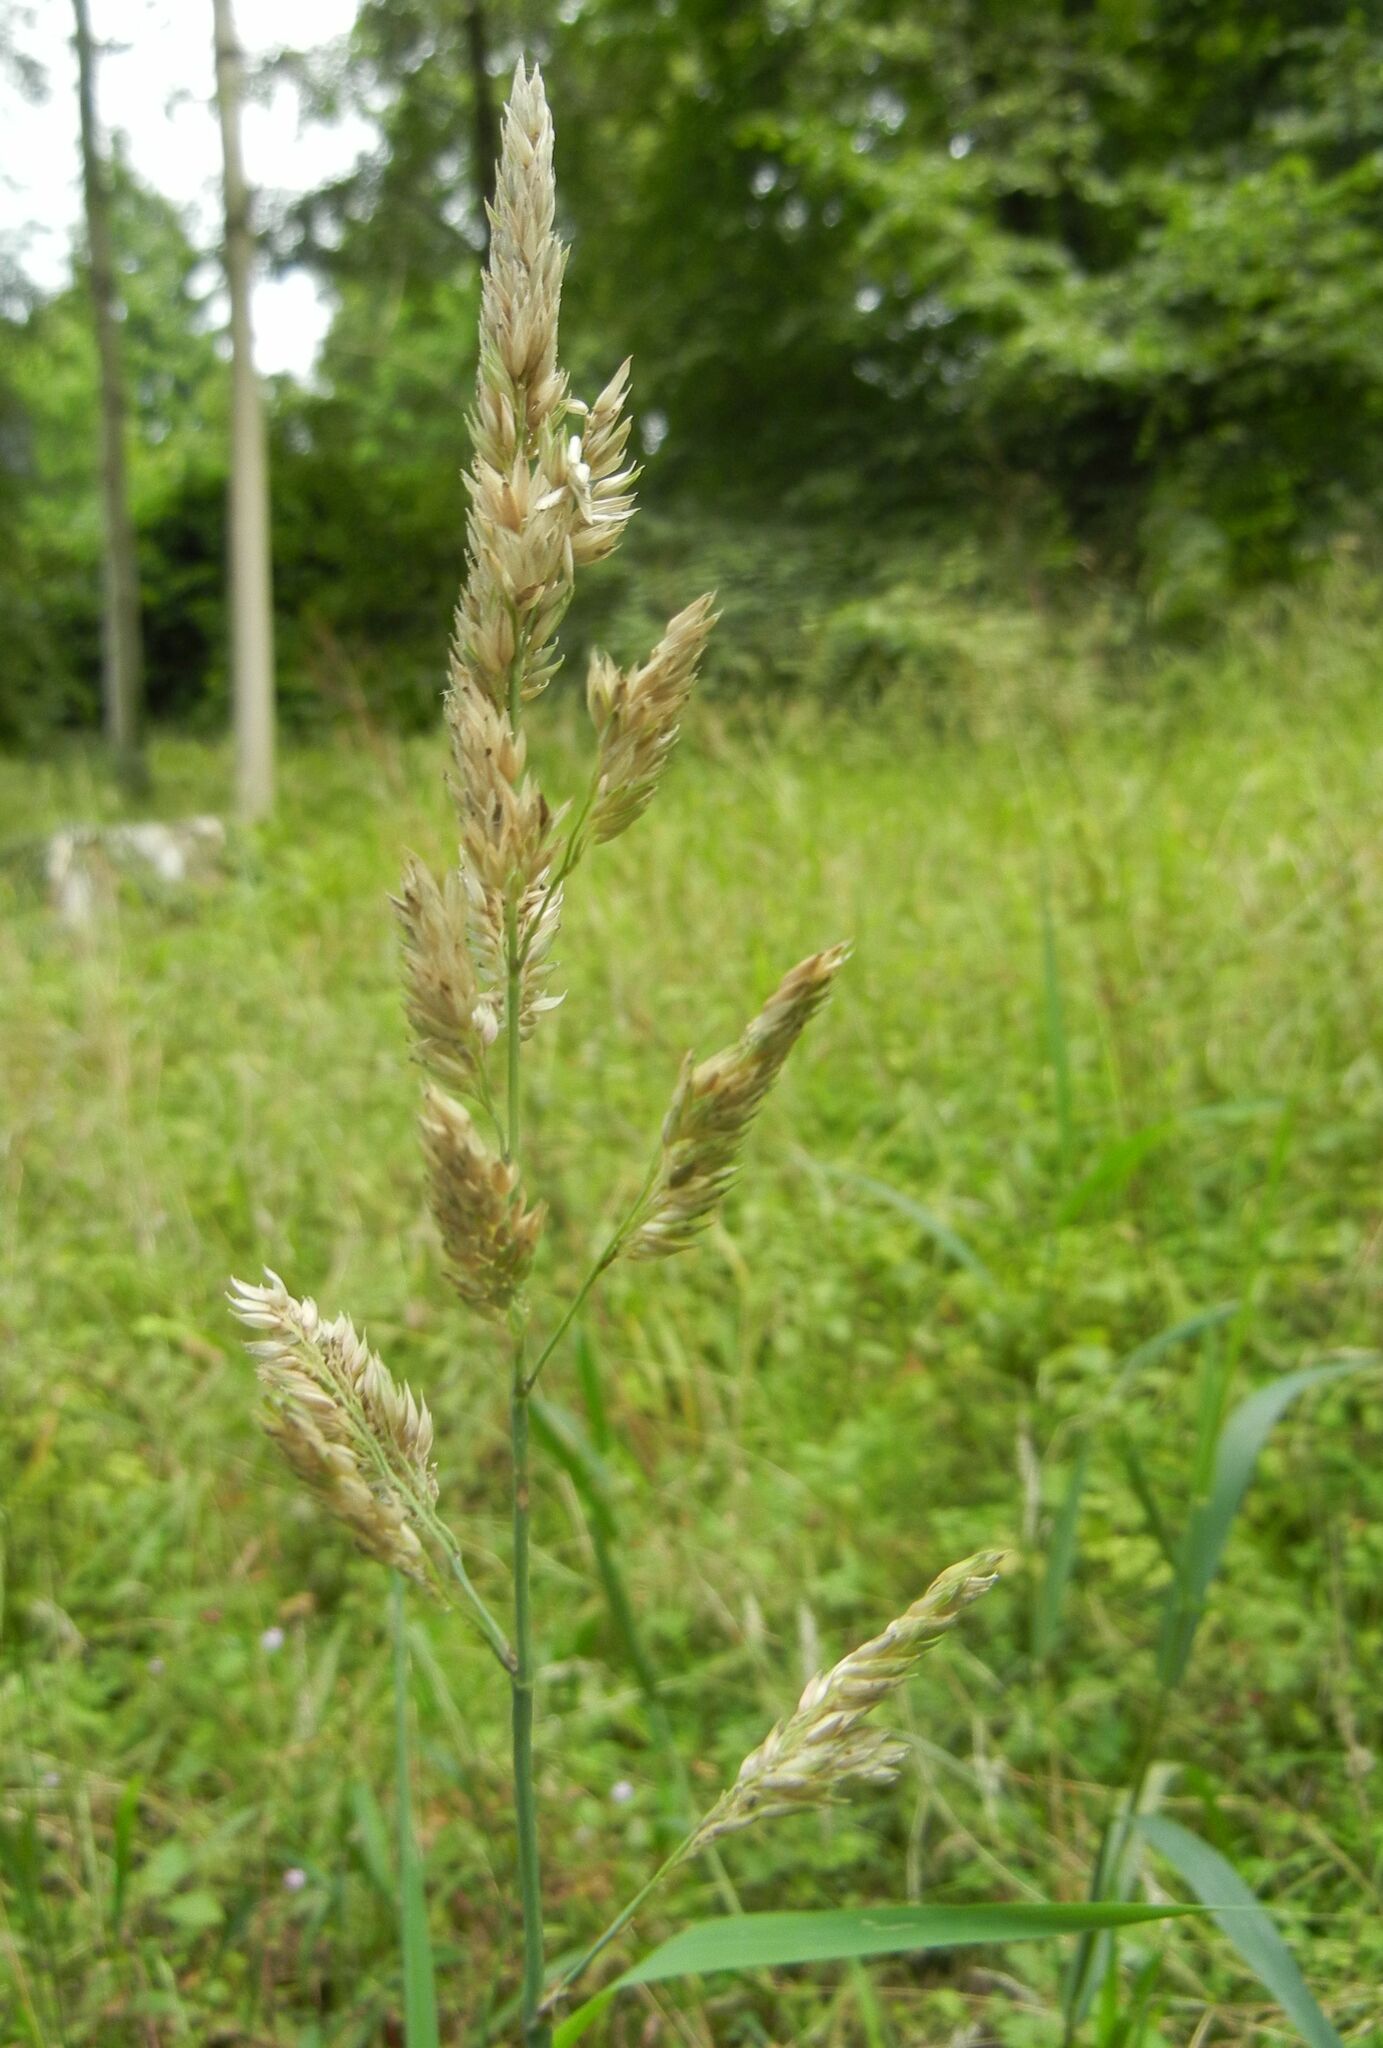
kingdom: Plantae
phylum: Tracheophyta
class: Liliopsida
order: Poales
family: Poaceae
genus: Phalaris
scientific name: Phalaris arundinacea
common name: Reed canary-grass
